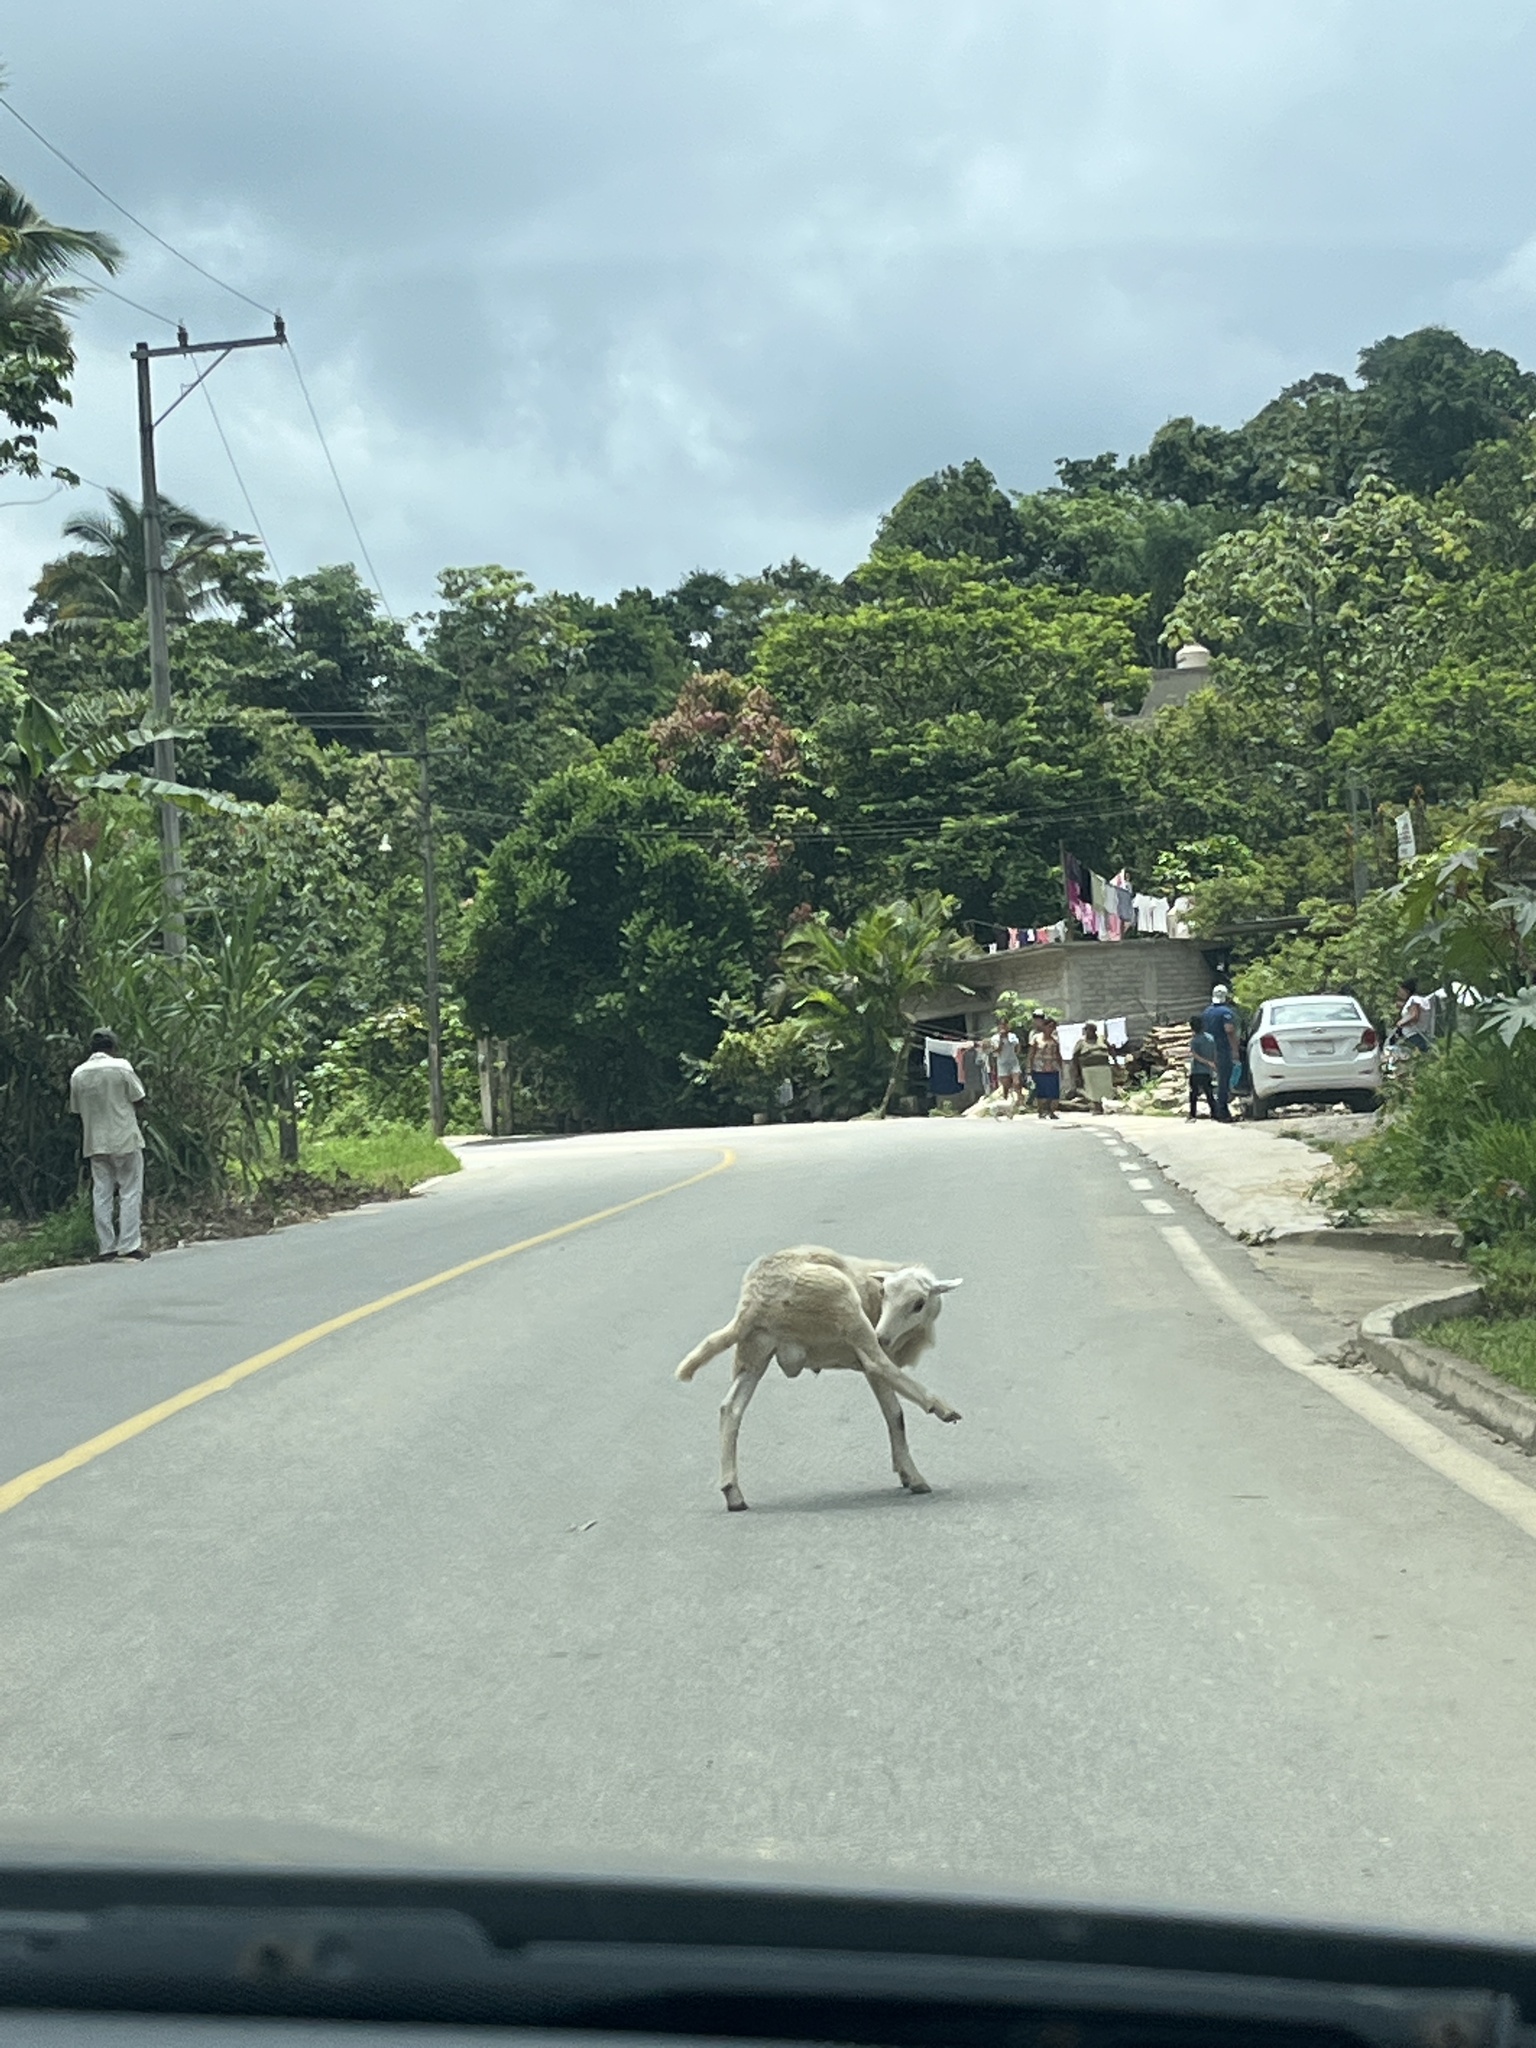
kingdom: Animalia
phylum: Chordata
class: Mammalia
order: Artiodactyla
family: Bovidae
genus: Capra
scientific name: Capra hircus
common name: Domestic goat
